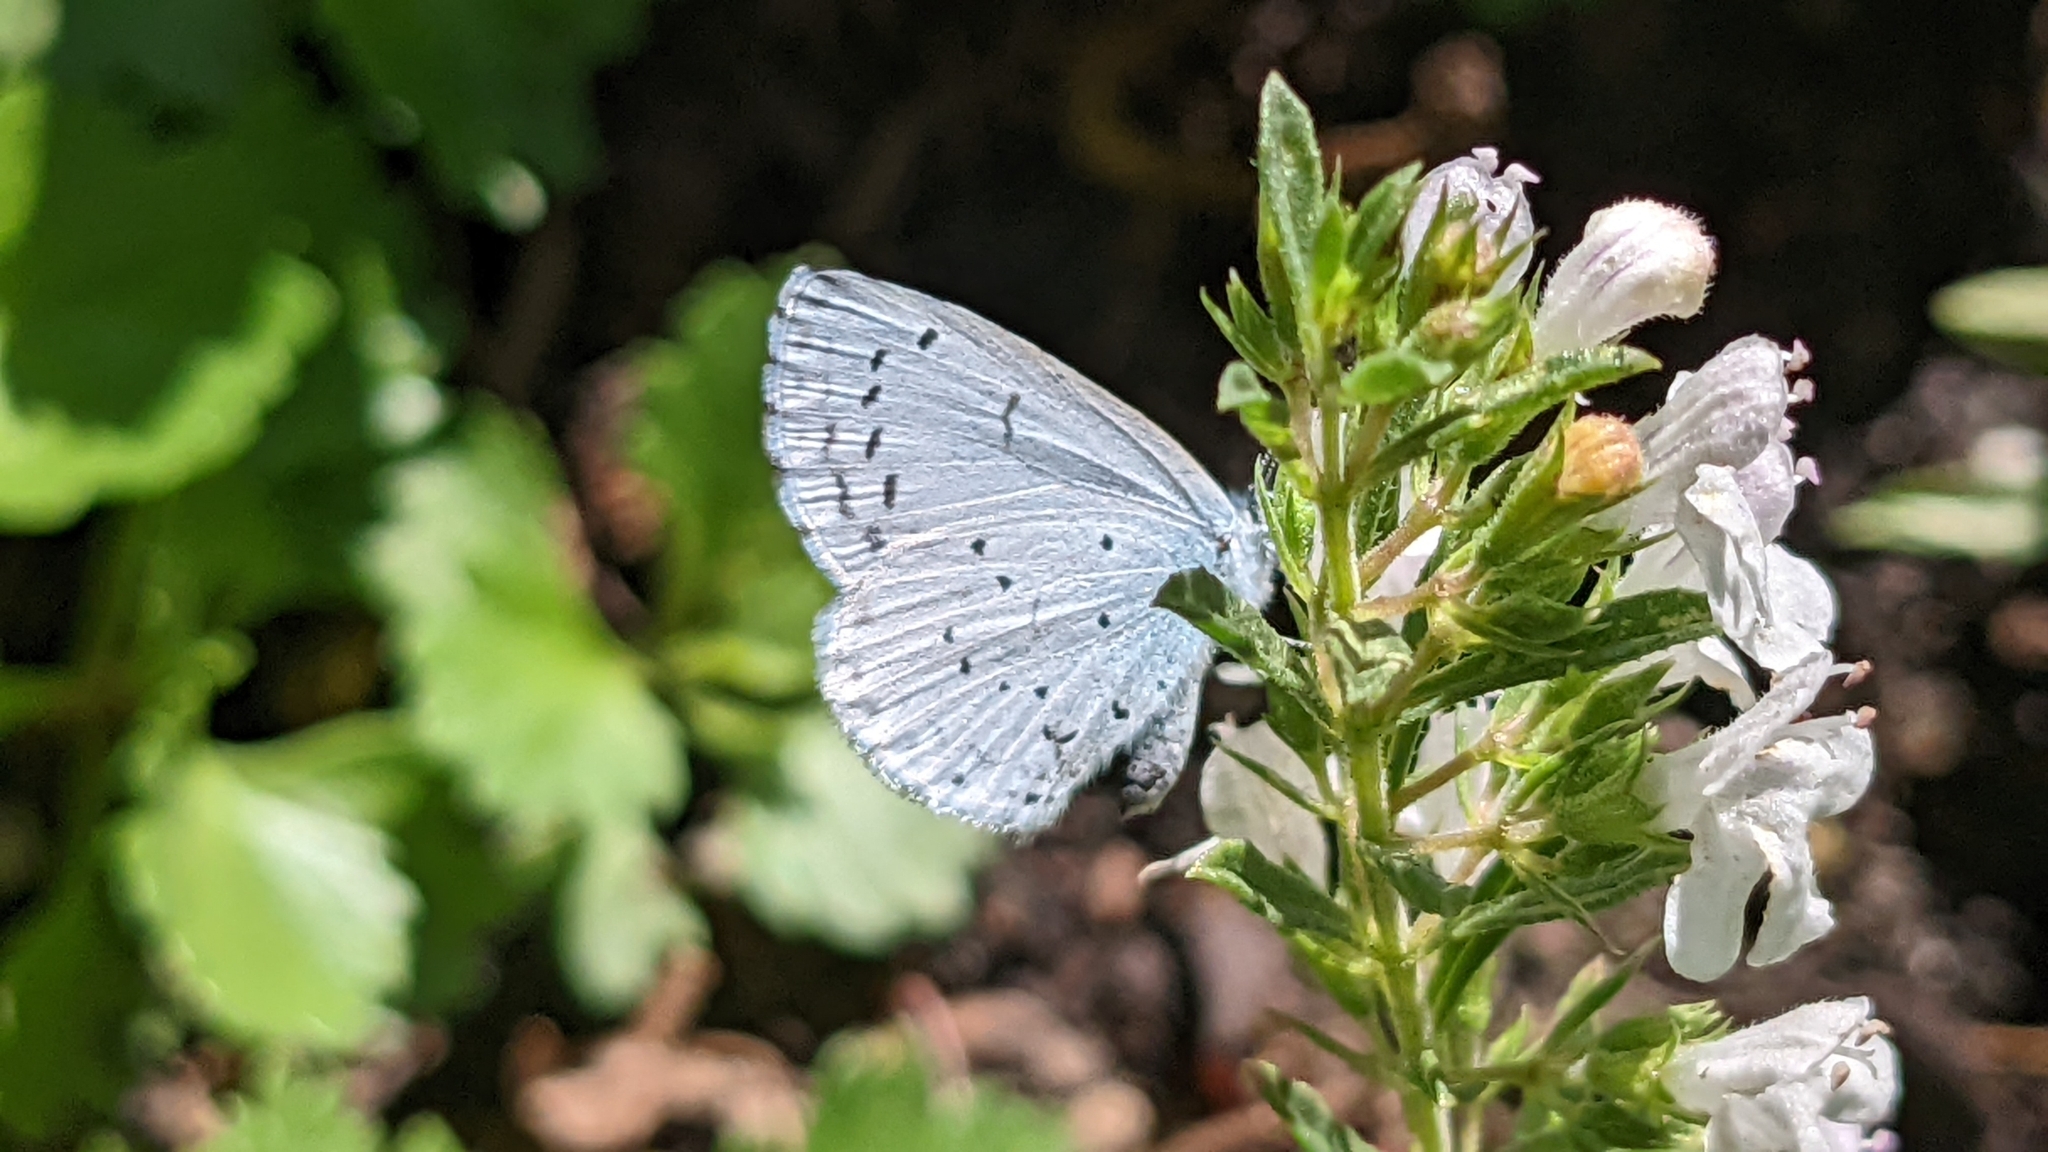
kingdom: Animalia
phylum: Arthropoda
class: Insecta
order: Lepidoptera
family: Lycaenidae
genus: Celastrina
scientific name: Celastrina argiolus
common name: Holly blue
